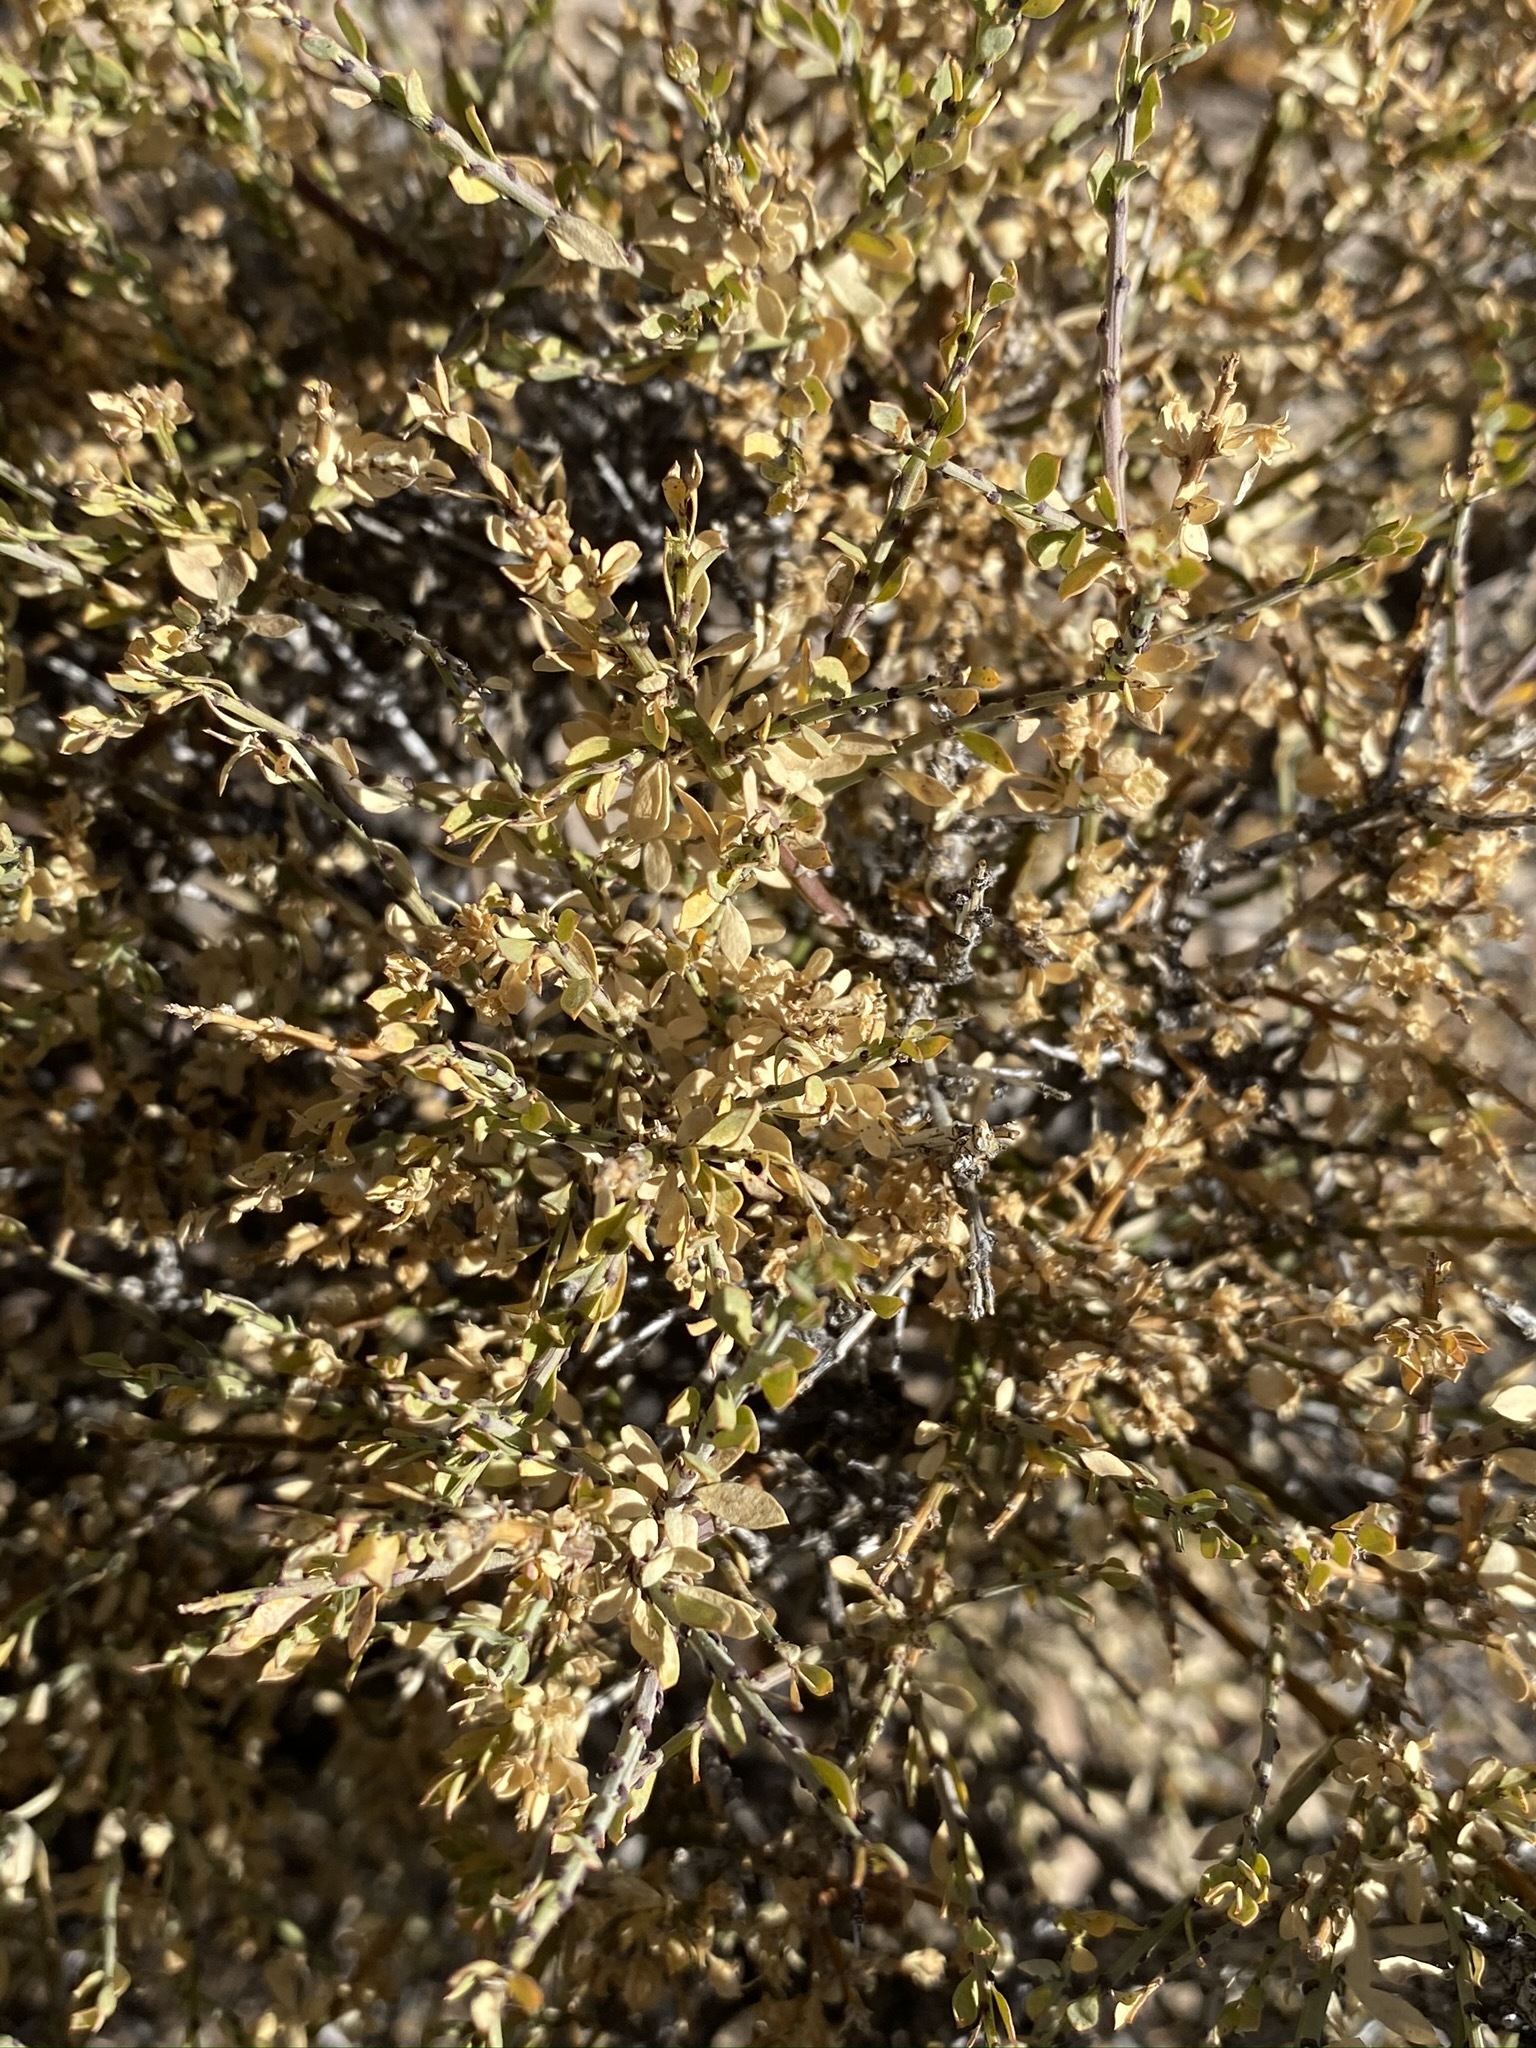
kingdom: Plantae
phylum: Tracheophyta
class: Magnoliopsida
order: Crossosomatales
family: Crossosomataceae
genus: Glossopetalon
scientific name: Glossopetalon spinescens
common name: Spring greasebush
